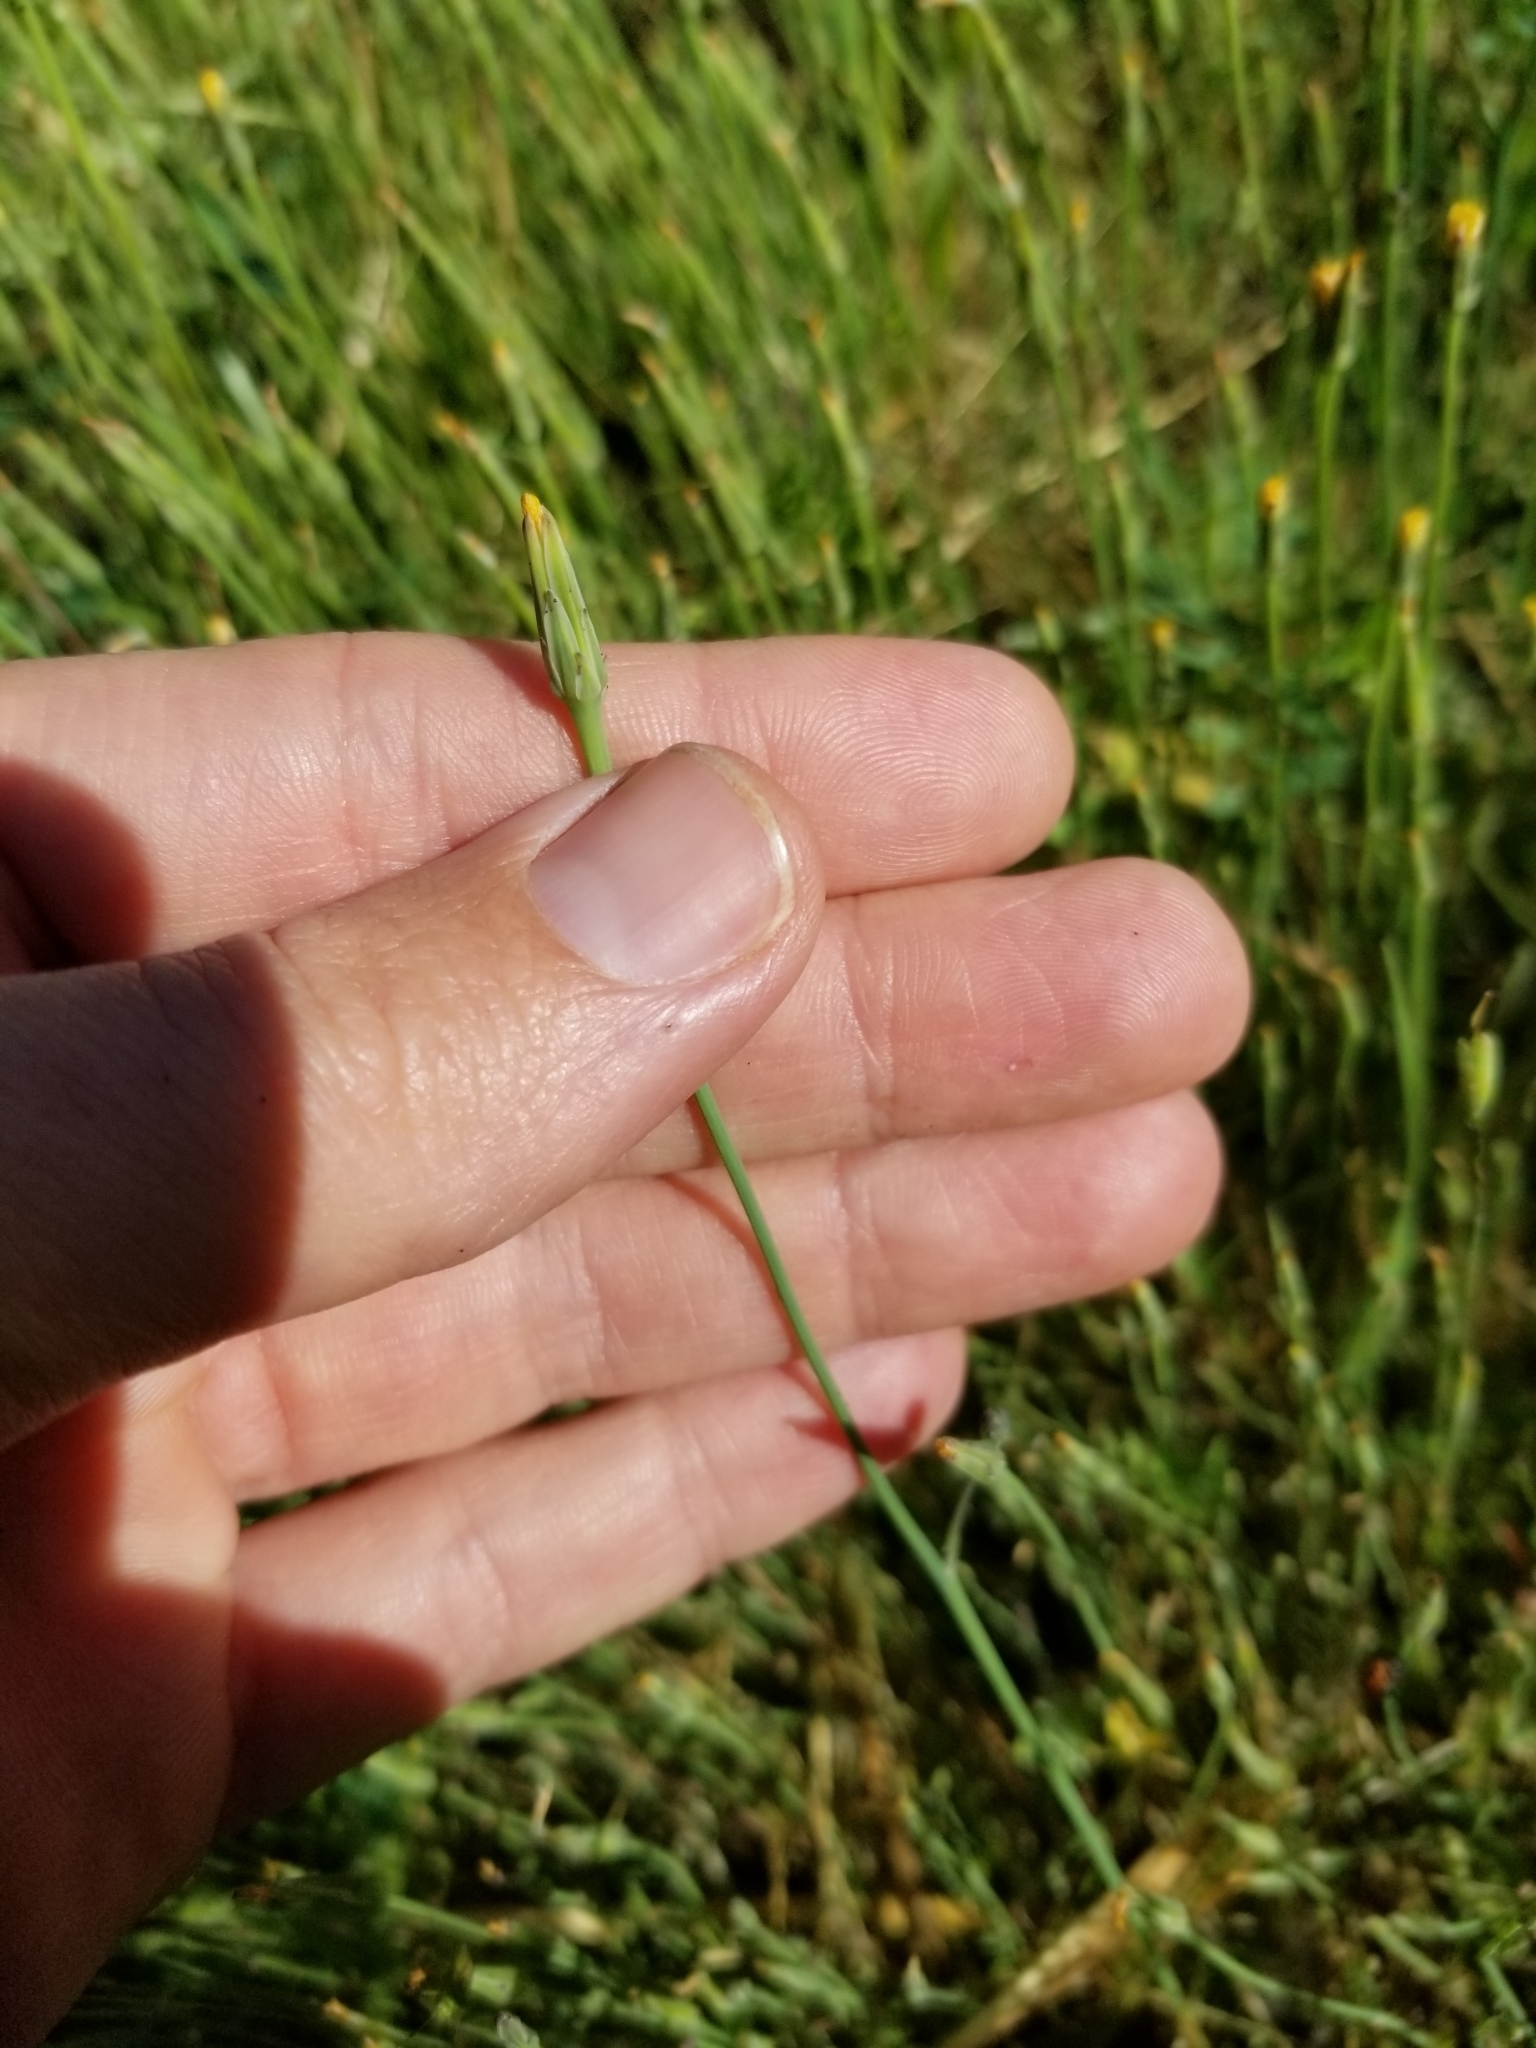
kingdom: Plantae
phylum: Tracheophyta
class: Magnoliopsida
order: Asterales
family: Asteraceae
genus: Hypochaeris
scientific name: Hypochaeris glabra
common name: Smooth catsear
